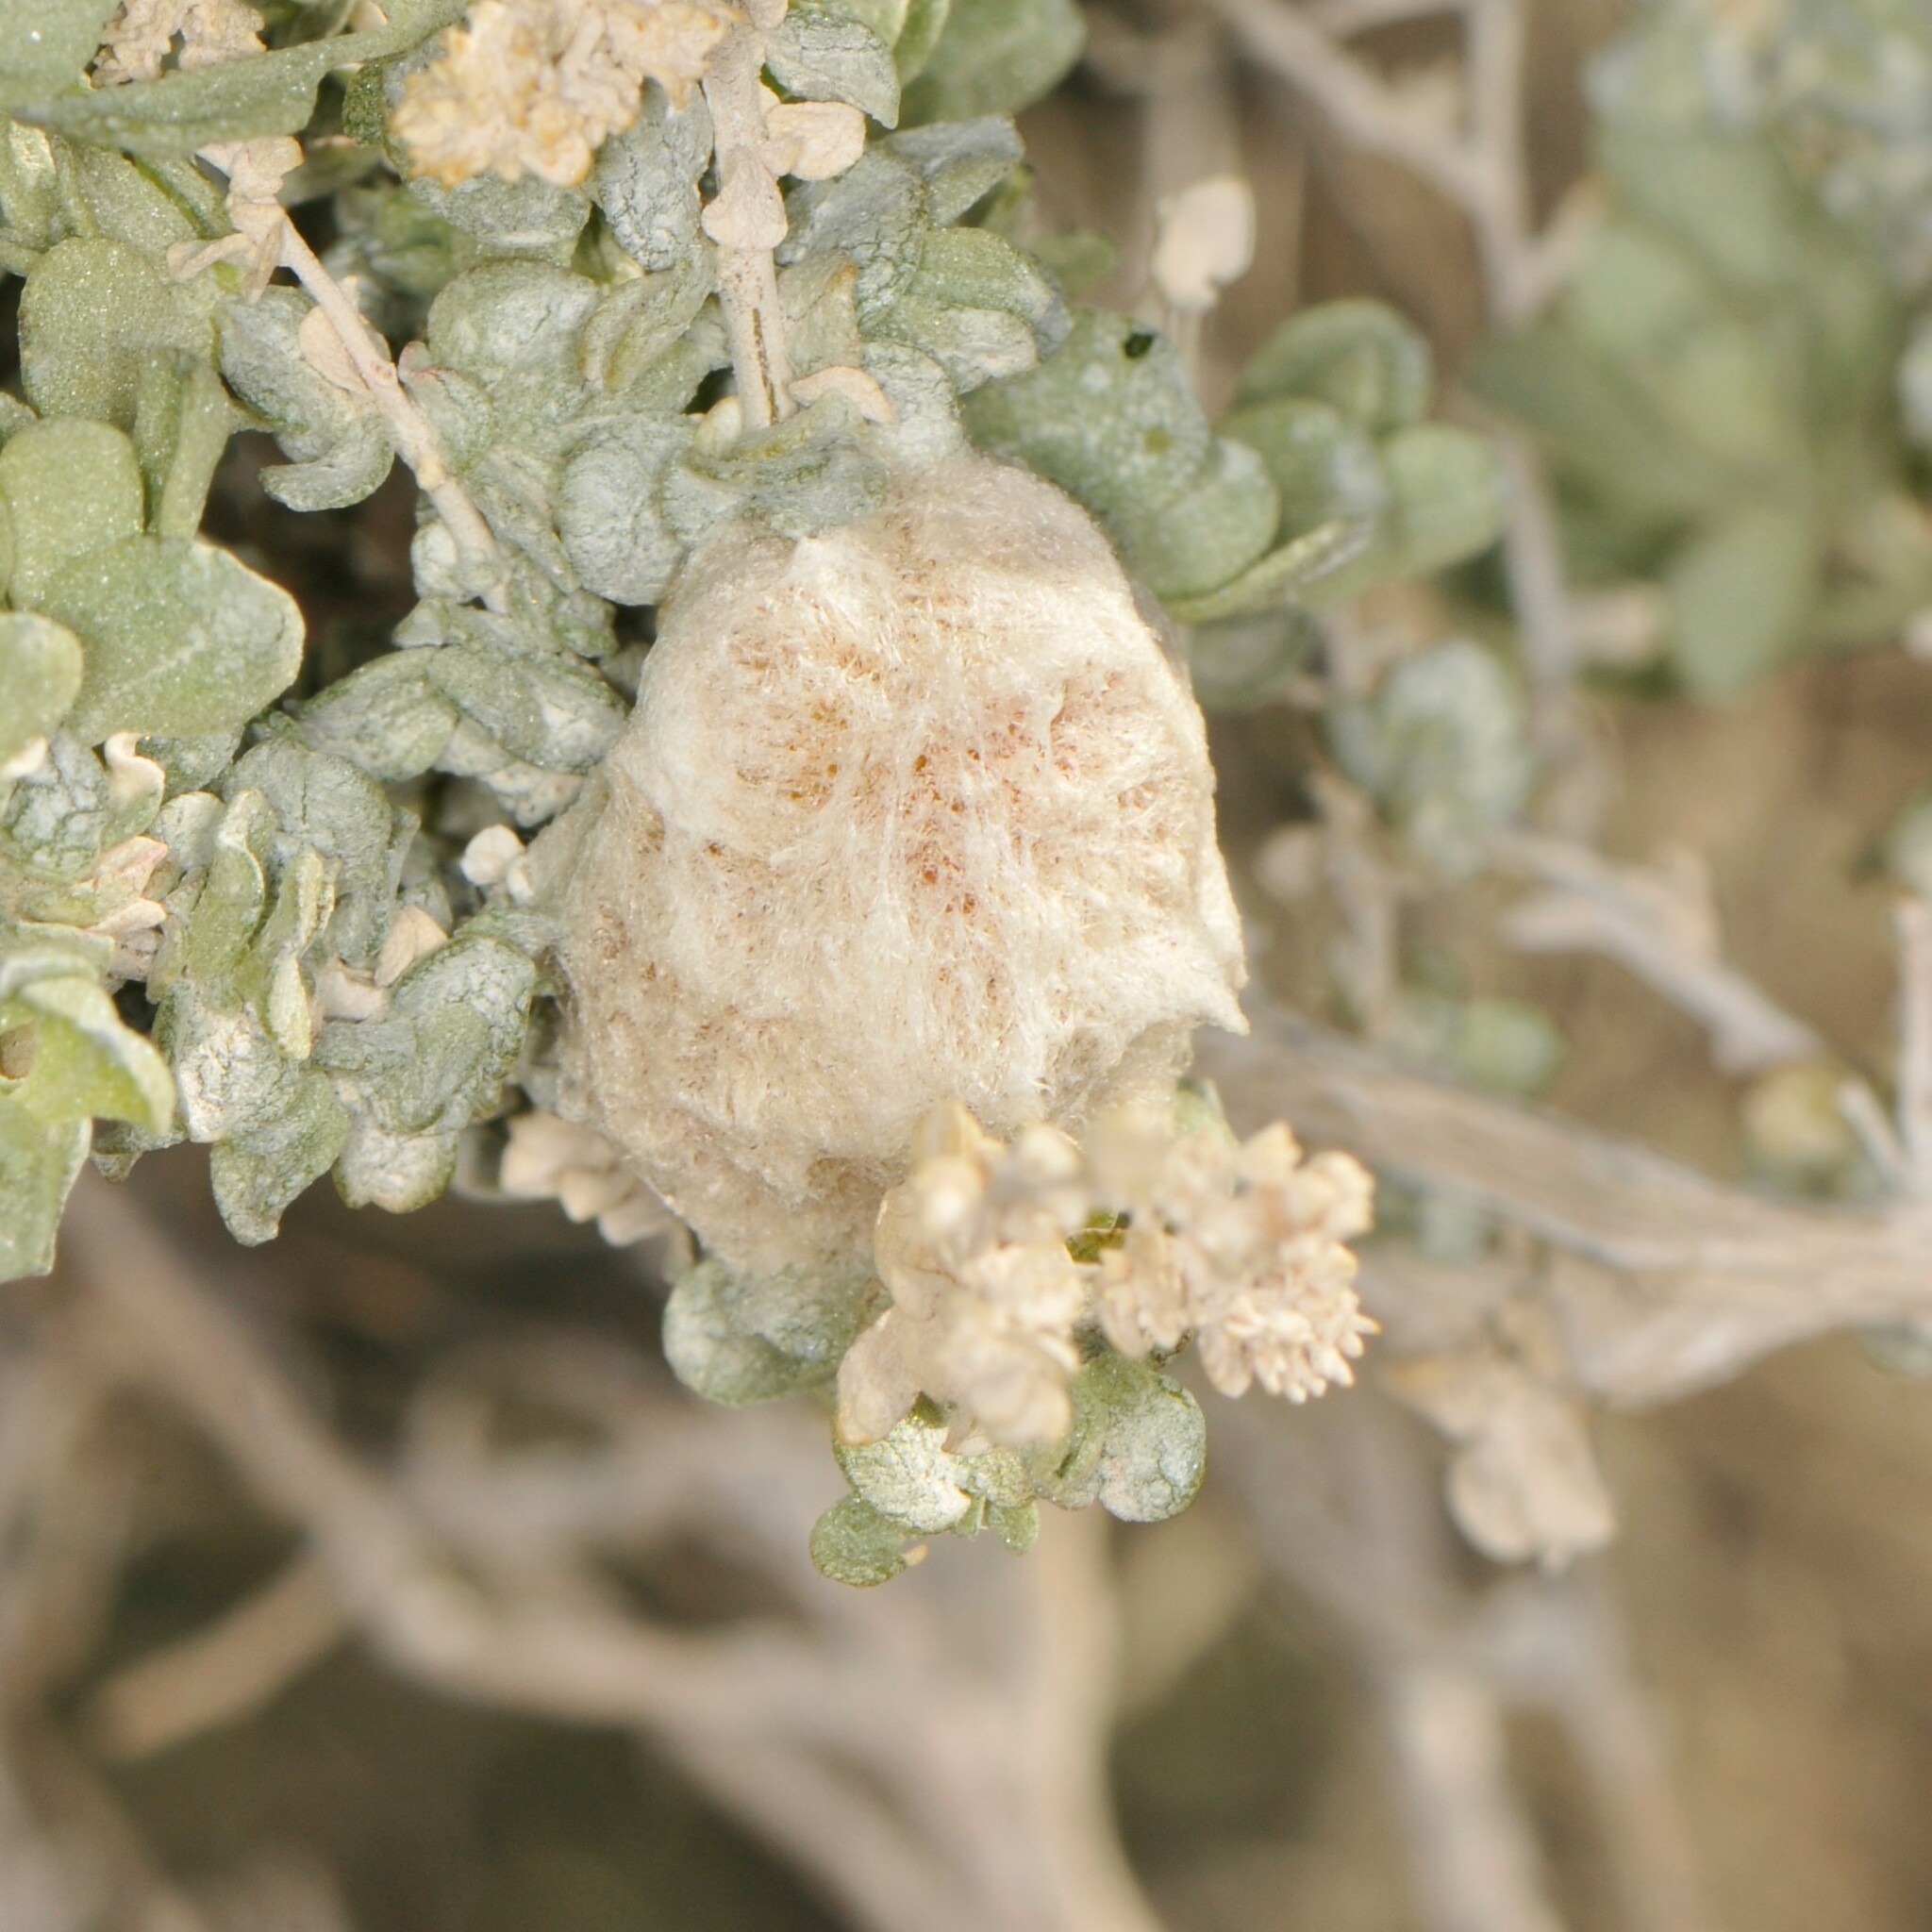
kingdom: Animalia
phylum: Arthropoda
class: Insecta
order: Diptera
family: Cecidomyiidae
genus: Asphondylia
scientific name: Asphondylia floccosa
